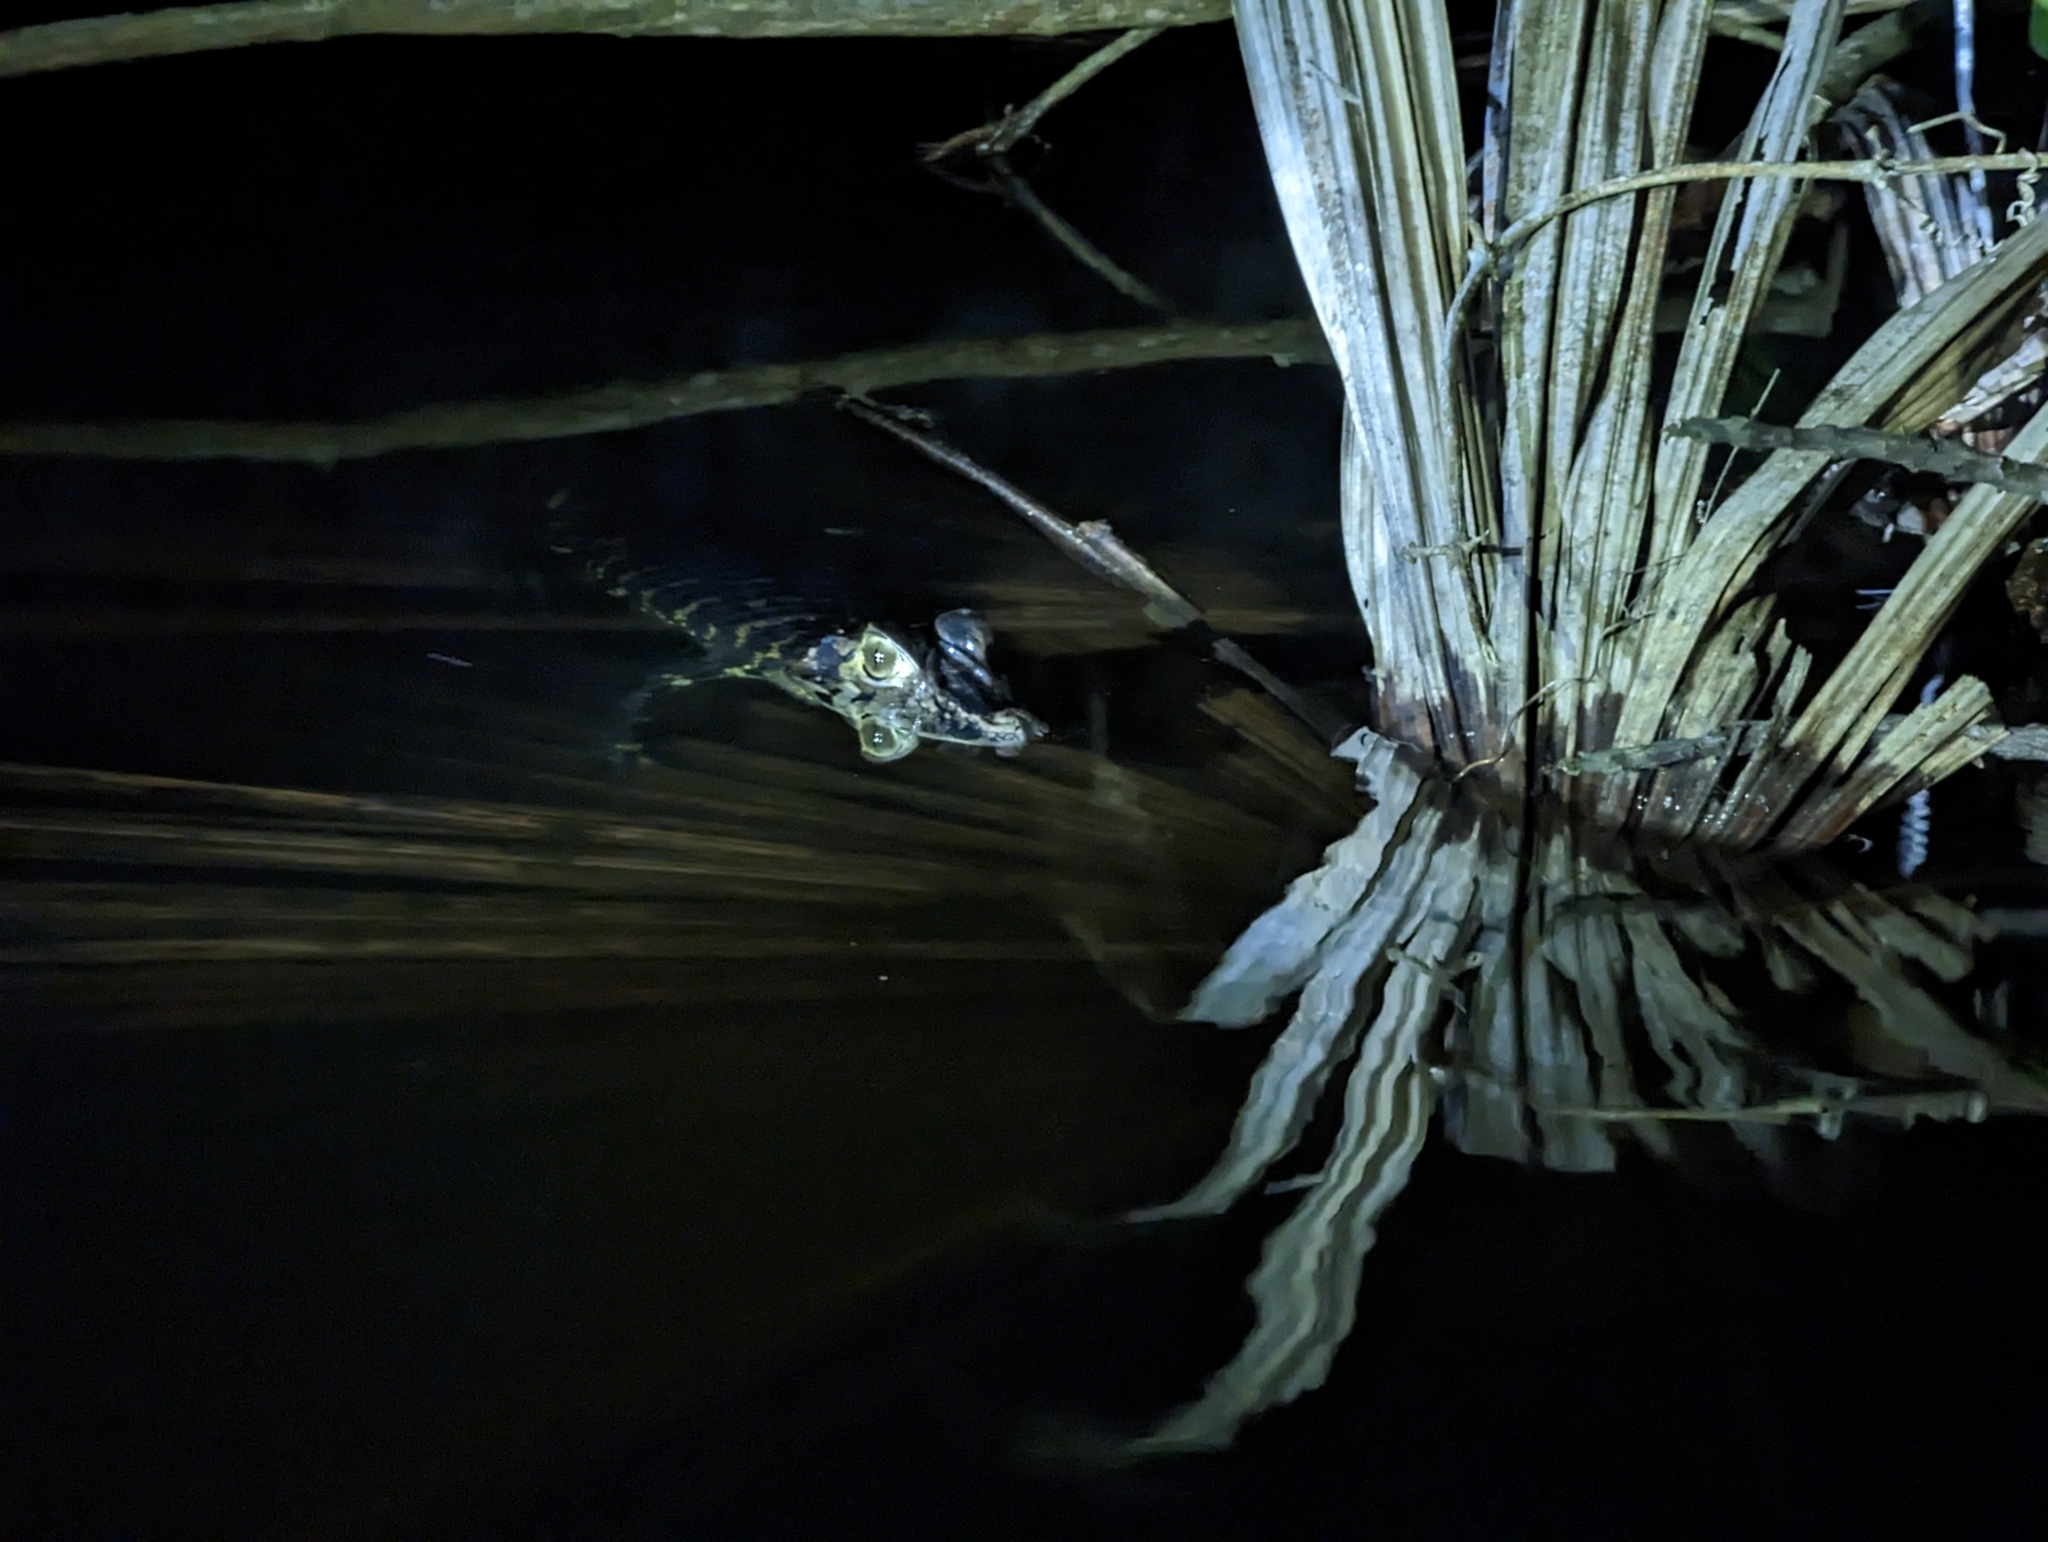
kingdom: Animalia
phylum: Chordata
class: Crocodylia
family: Alligatoridae
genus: Melanosuchus
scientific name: Melanosuchus niger
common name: Black caiman
